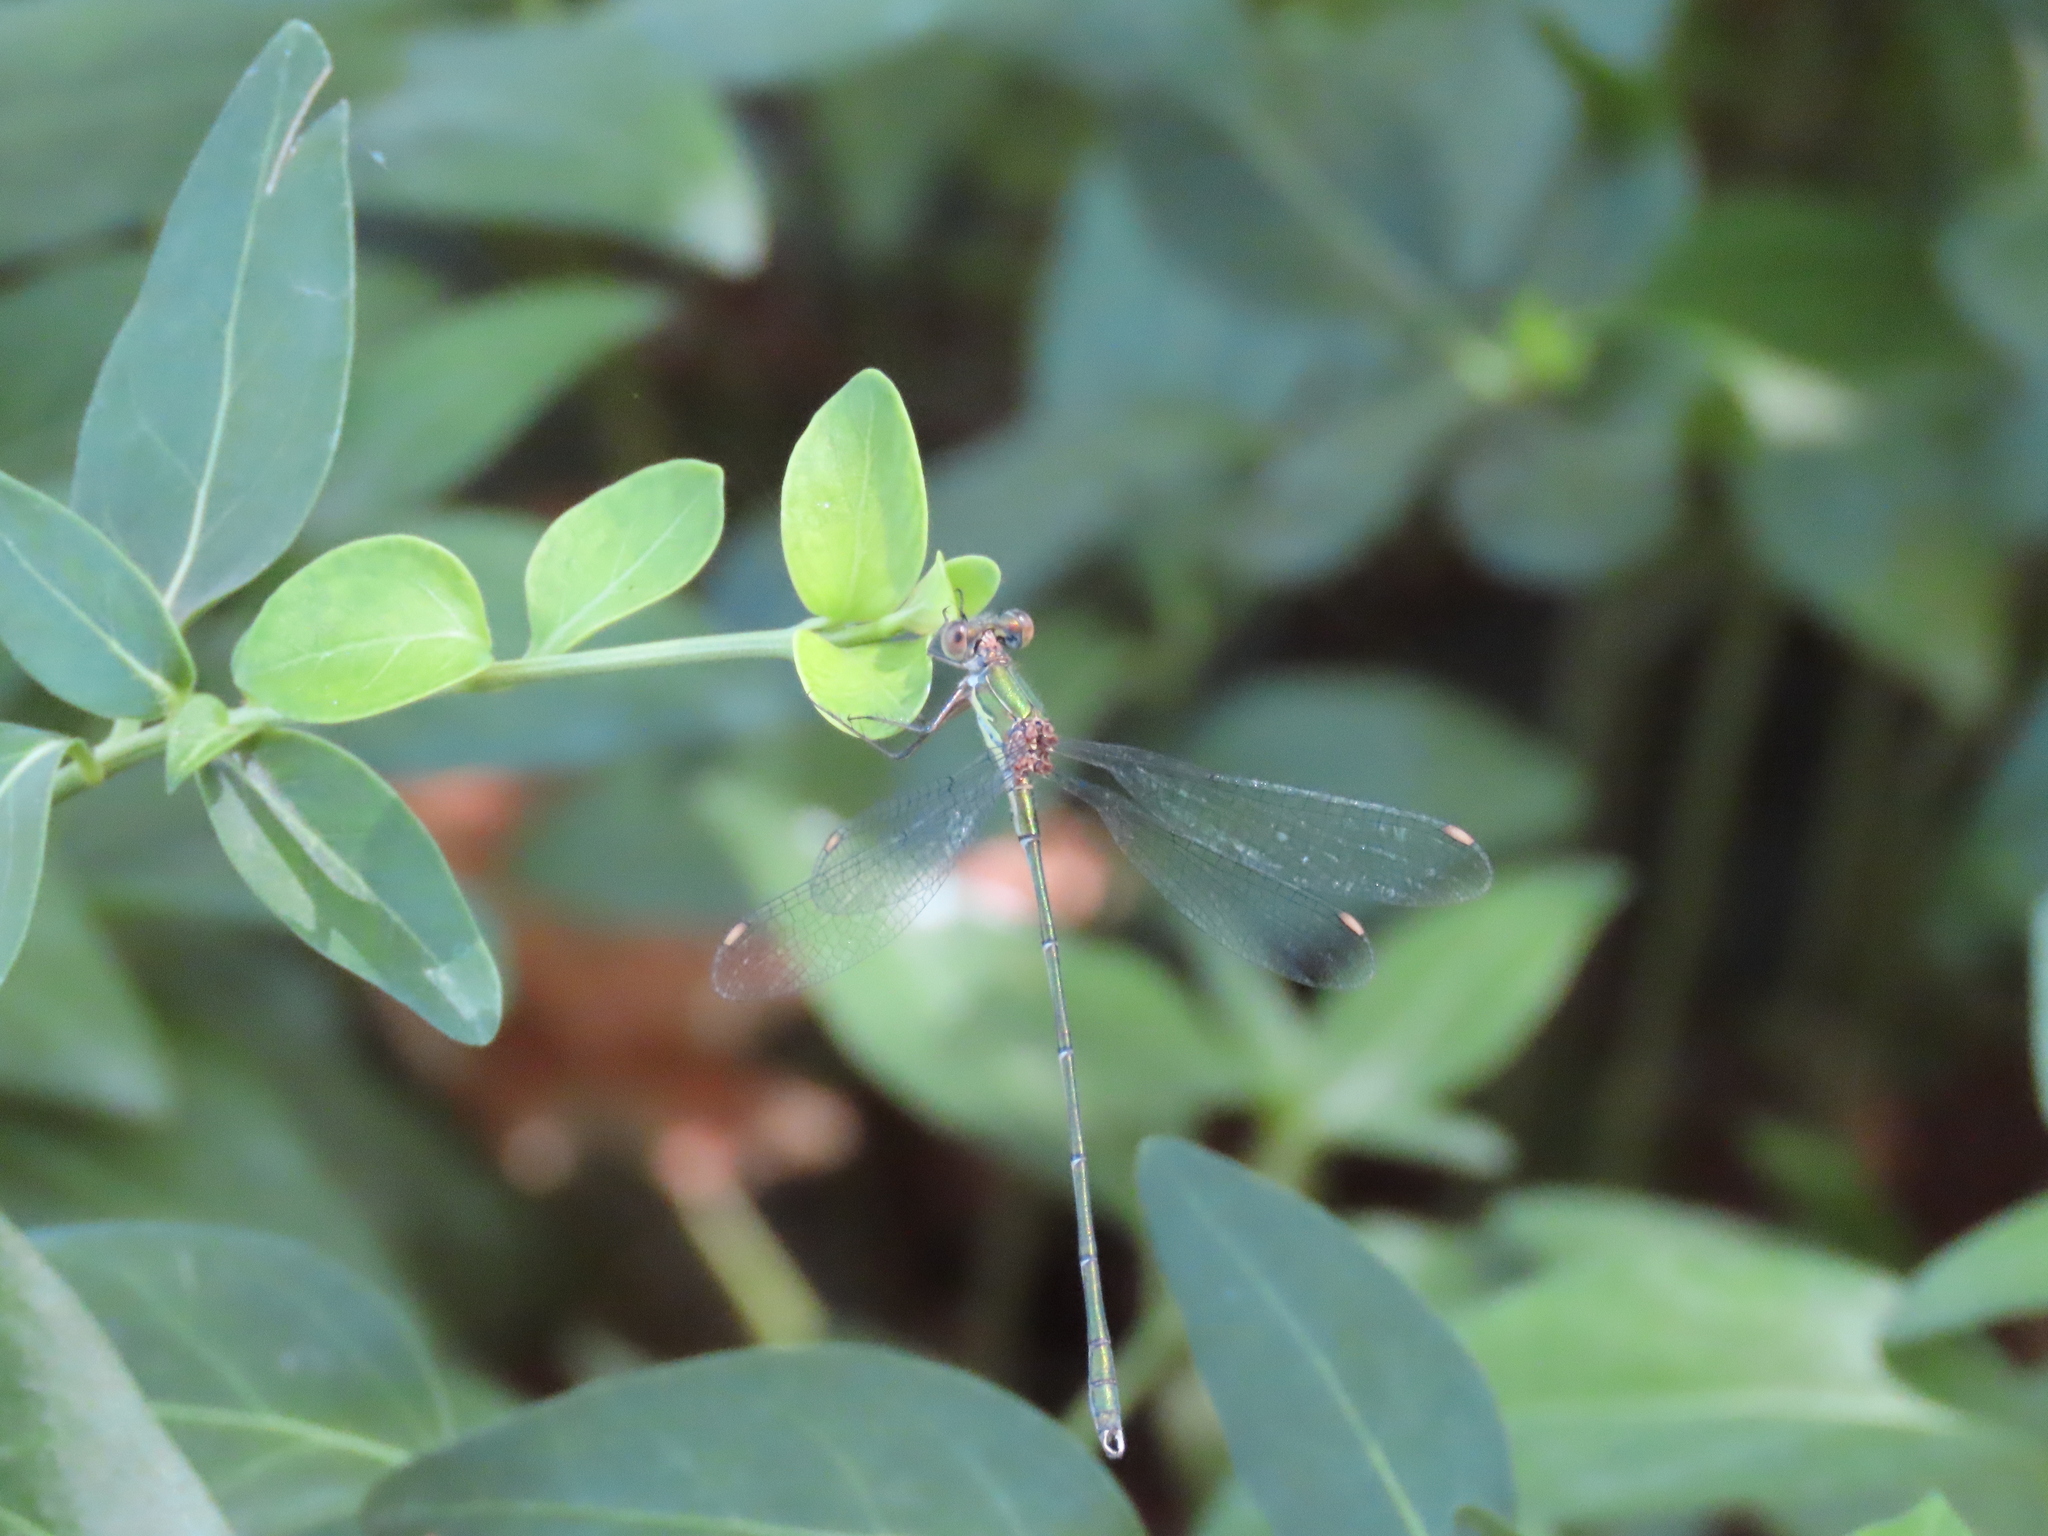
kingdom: Animalia
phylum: Arthropoda
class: Insecta
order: Odonata
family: Lestidae
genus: Chalcolestes
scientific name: Chalcolestes viridis
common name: Green emerald damselfly
